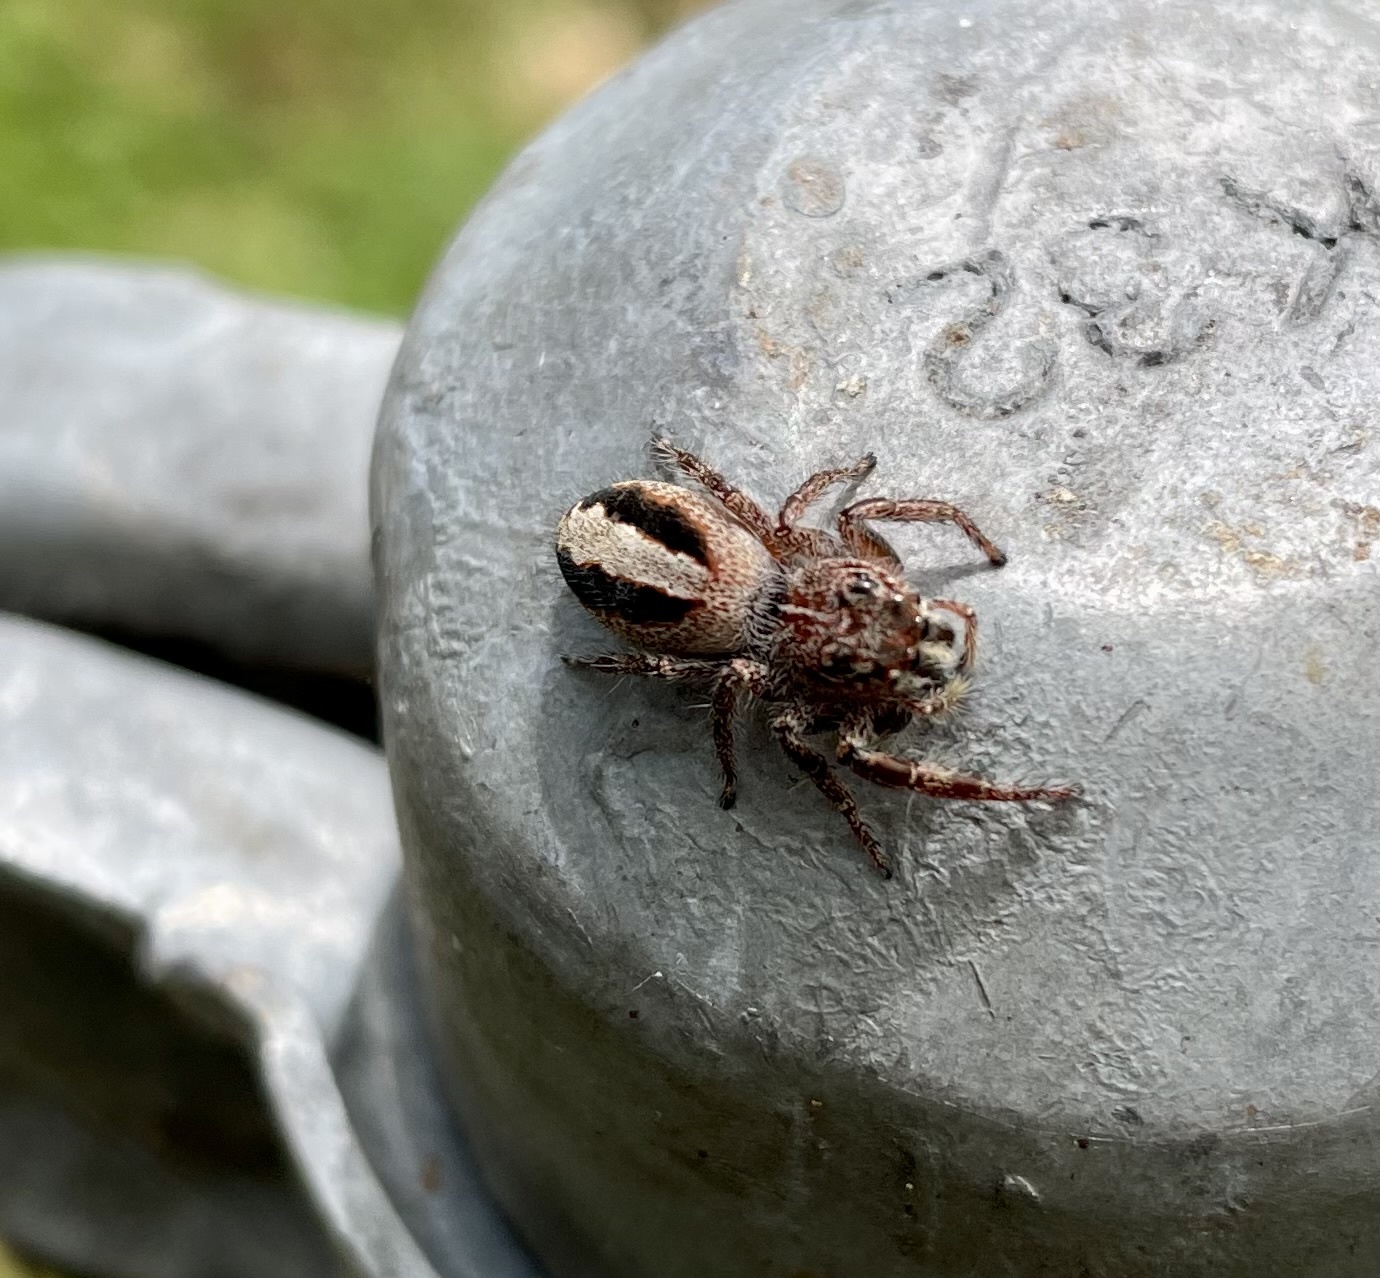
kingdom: Animalia
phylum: Arthropoda
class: Arachnida
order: Araneae
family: Salticidae
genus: Sandalodes
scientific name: Sandalodes superbus
